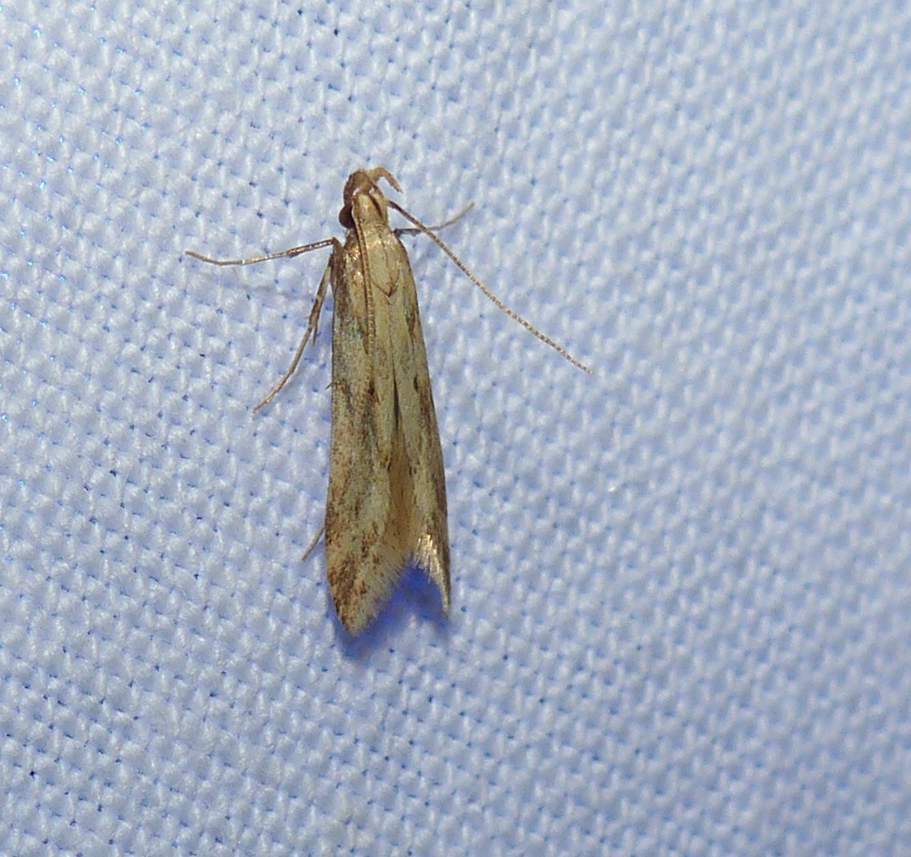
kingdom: Animalia
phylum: Arthropoda
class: Insecta
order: Lepidoptera
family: Gelechiidae
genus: Metzneria
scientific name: Metzneria lappella
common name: Burdock neb
